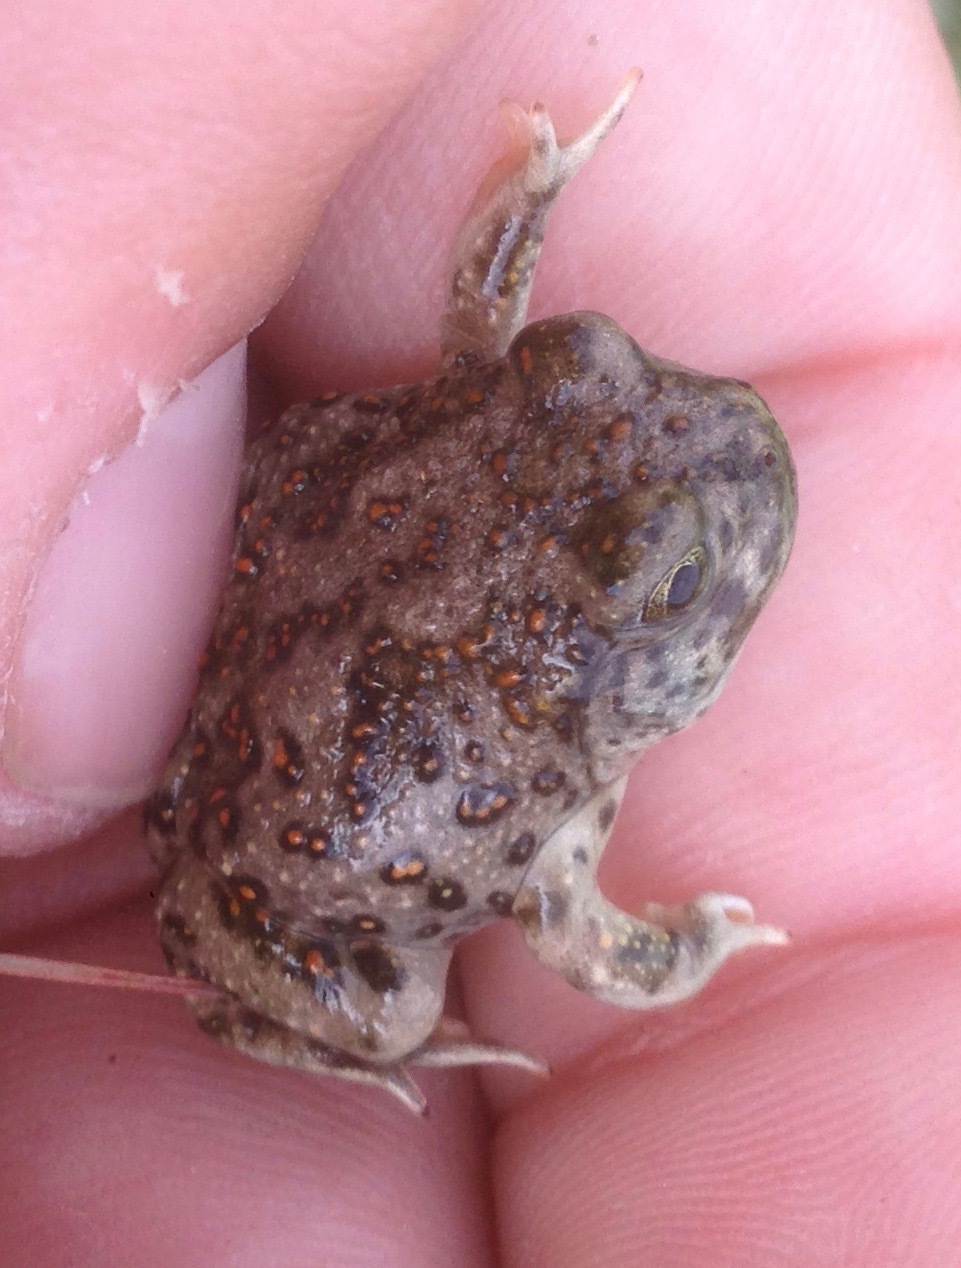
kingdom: Animalia
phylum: Chordata
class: Amphibia
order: Anura
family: Scaphiopodidae
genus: Spea
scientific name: Spea hammondii
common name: Western spadefoot toad
